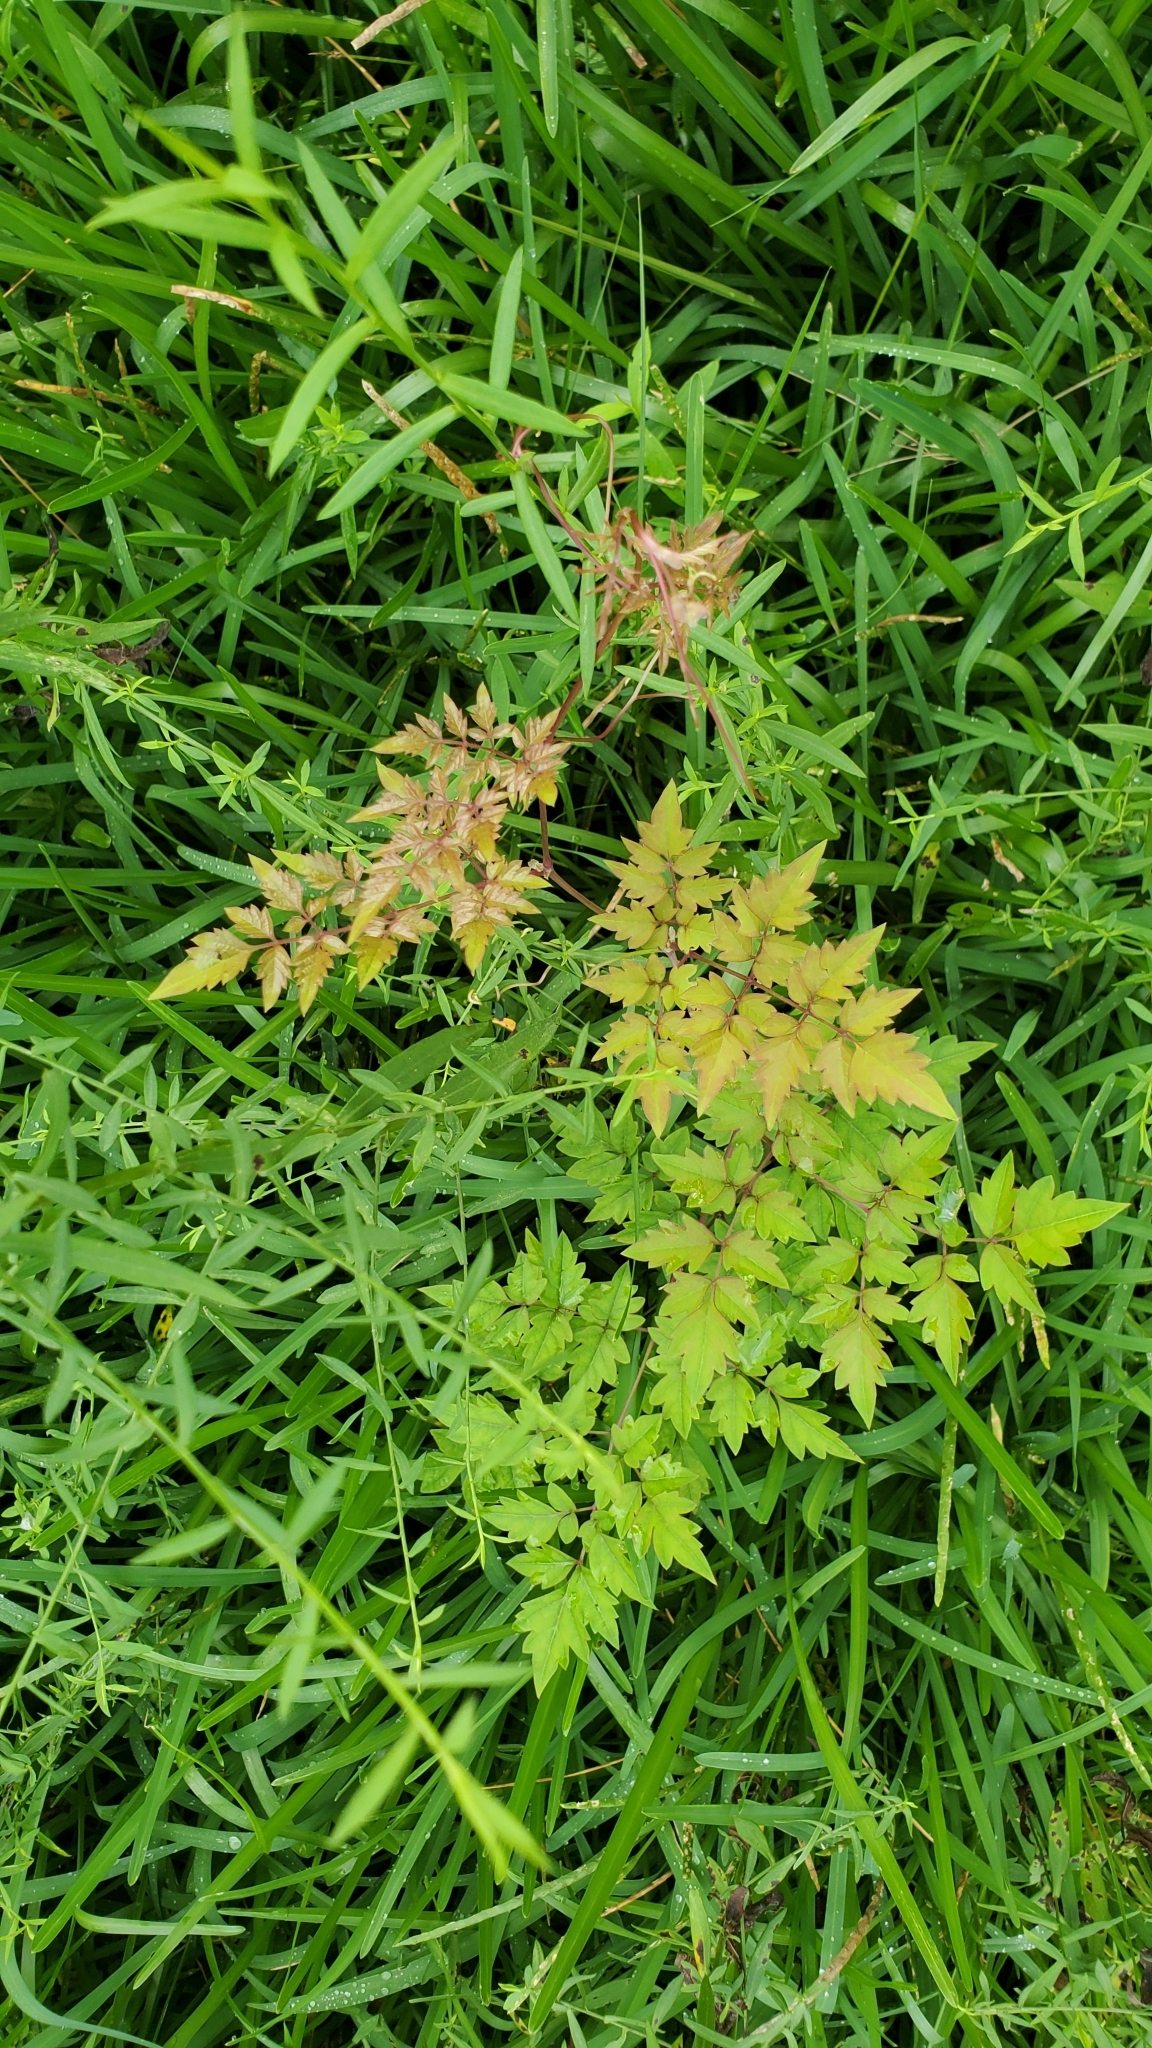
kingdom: Plantae
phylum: Tracheophyta
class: Magnoliopsida
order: Vitales
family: Vitaceae
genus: Nekemias
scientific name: Nekemias arborea
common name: Peppervine
